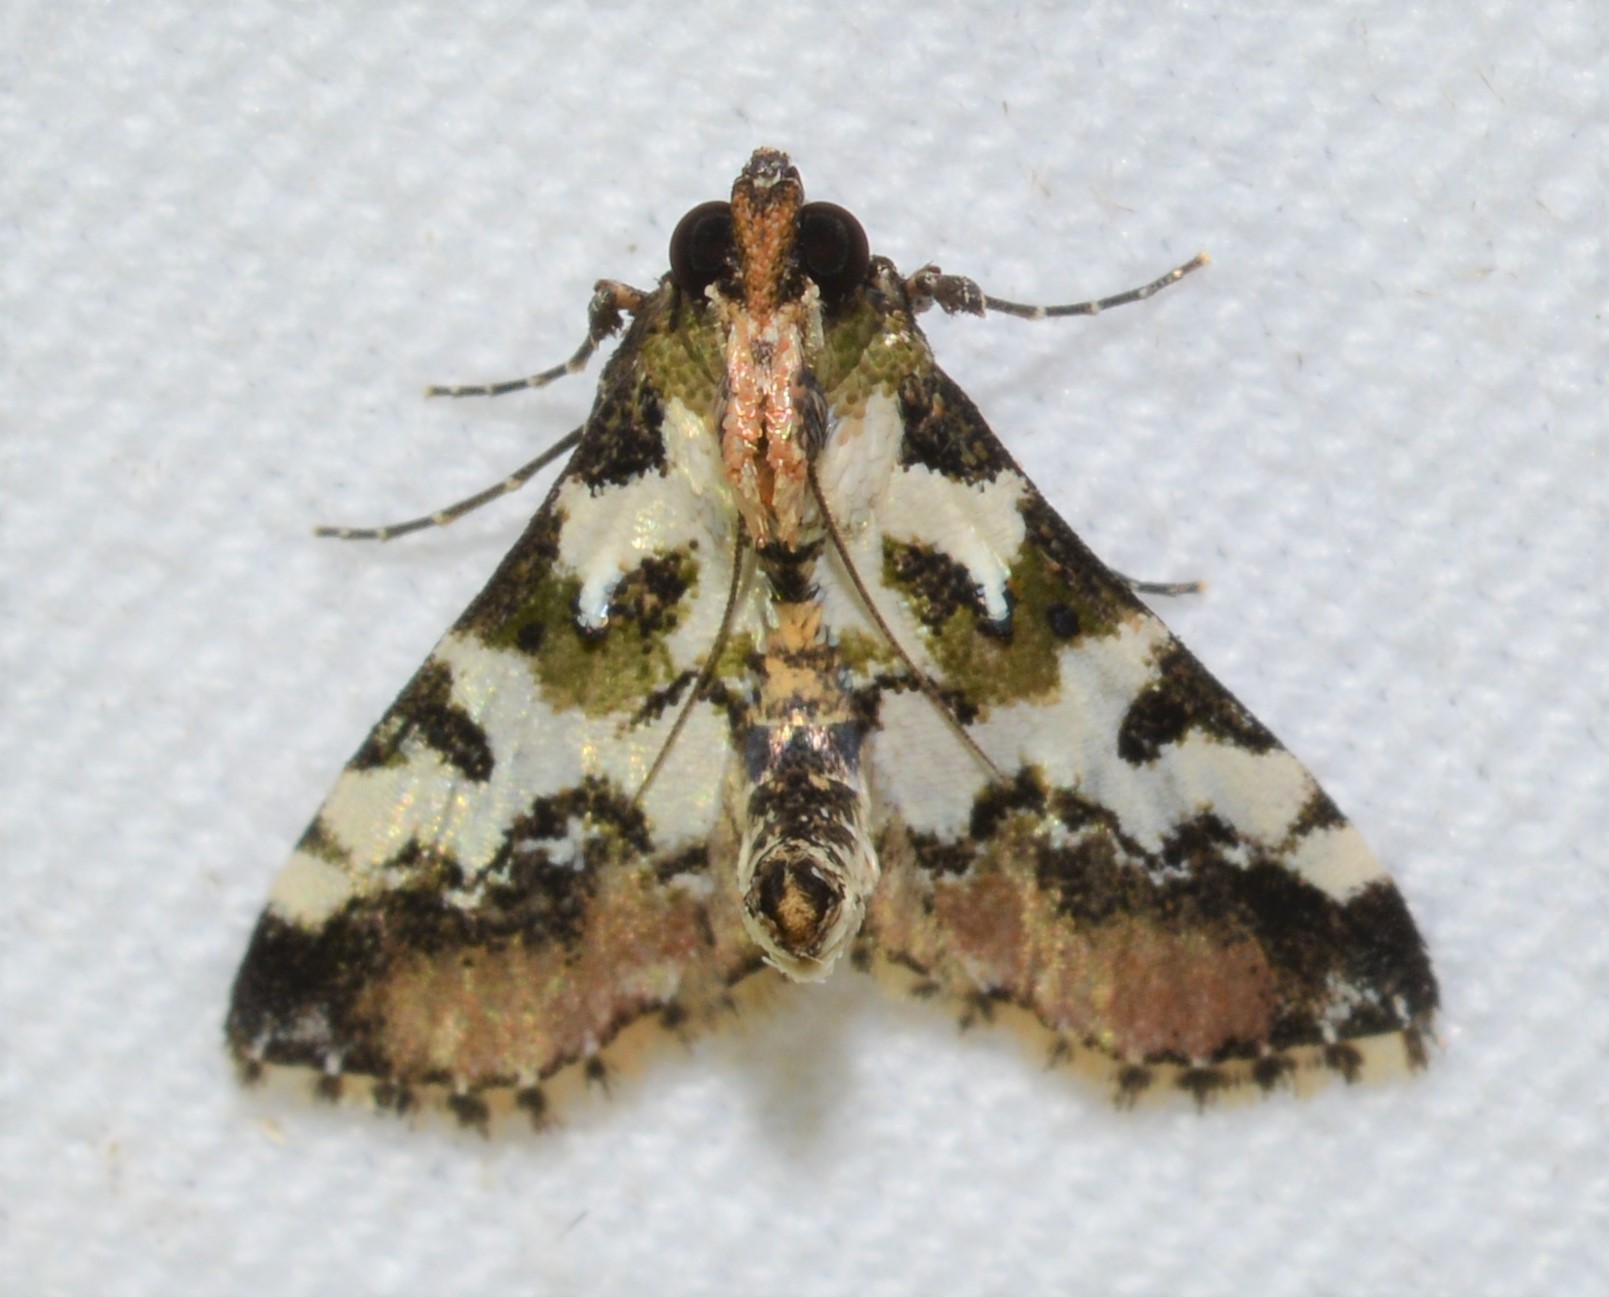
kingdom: Animalia
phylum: Arthropoda
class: Insecta
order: Lepidoptera
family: Pyralidae
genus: Milgithea
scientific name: Milgithea suramisa
